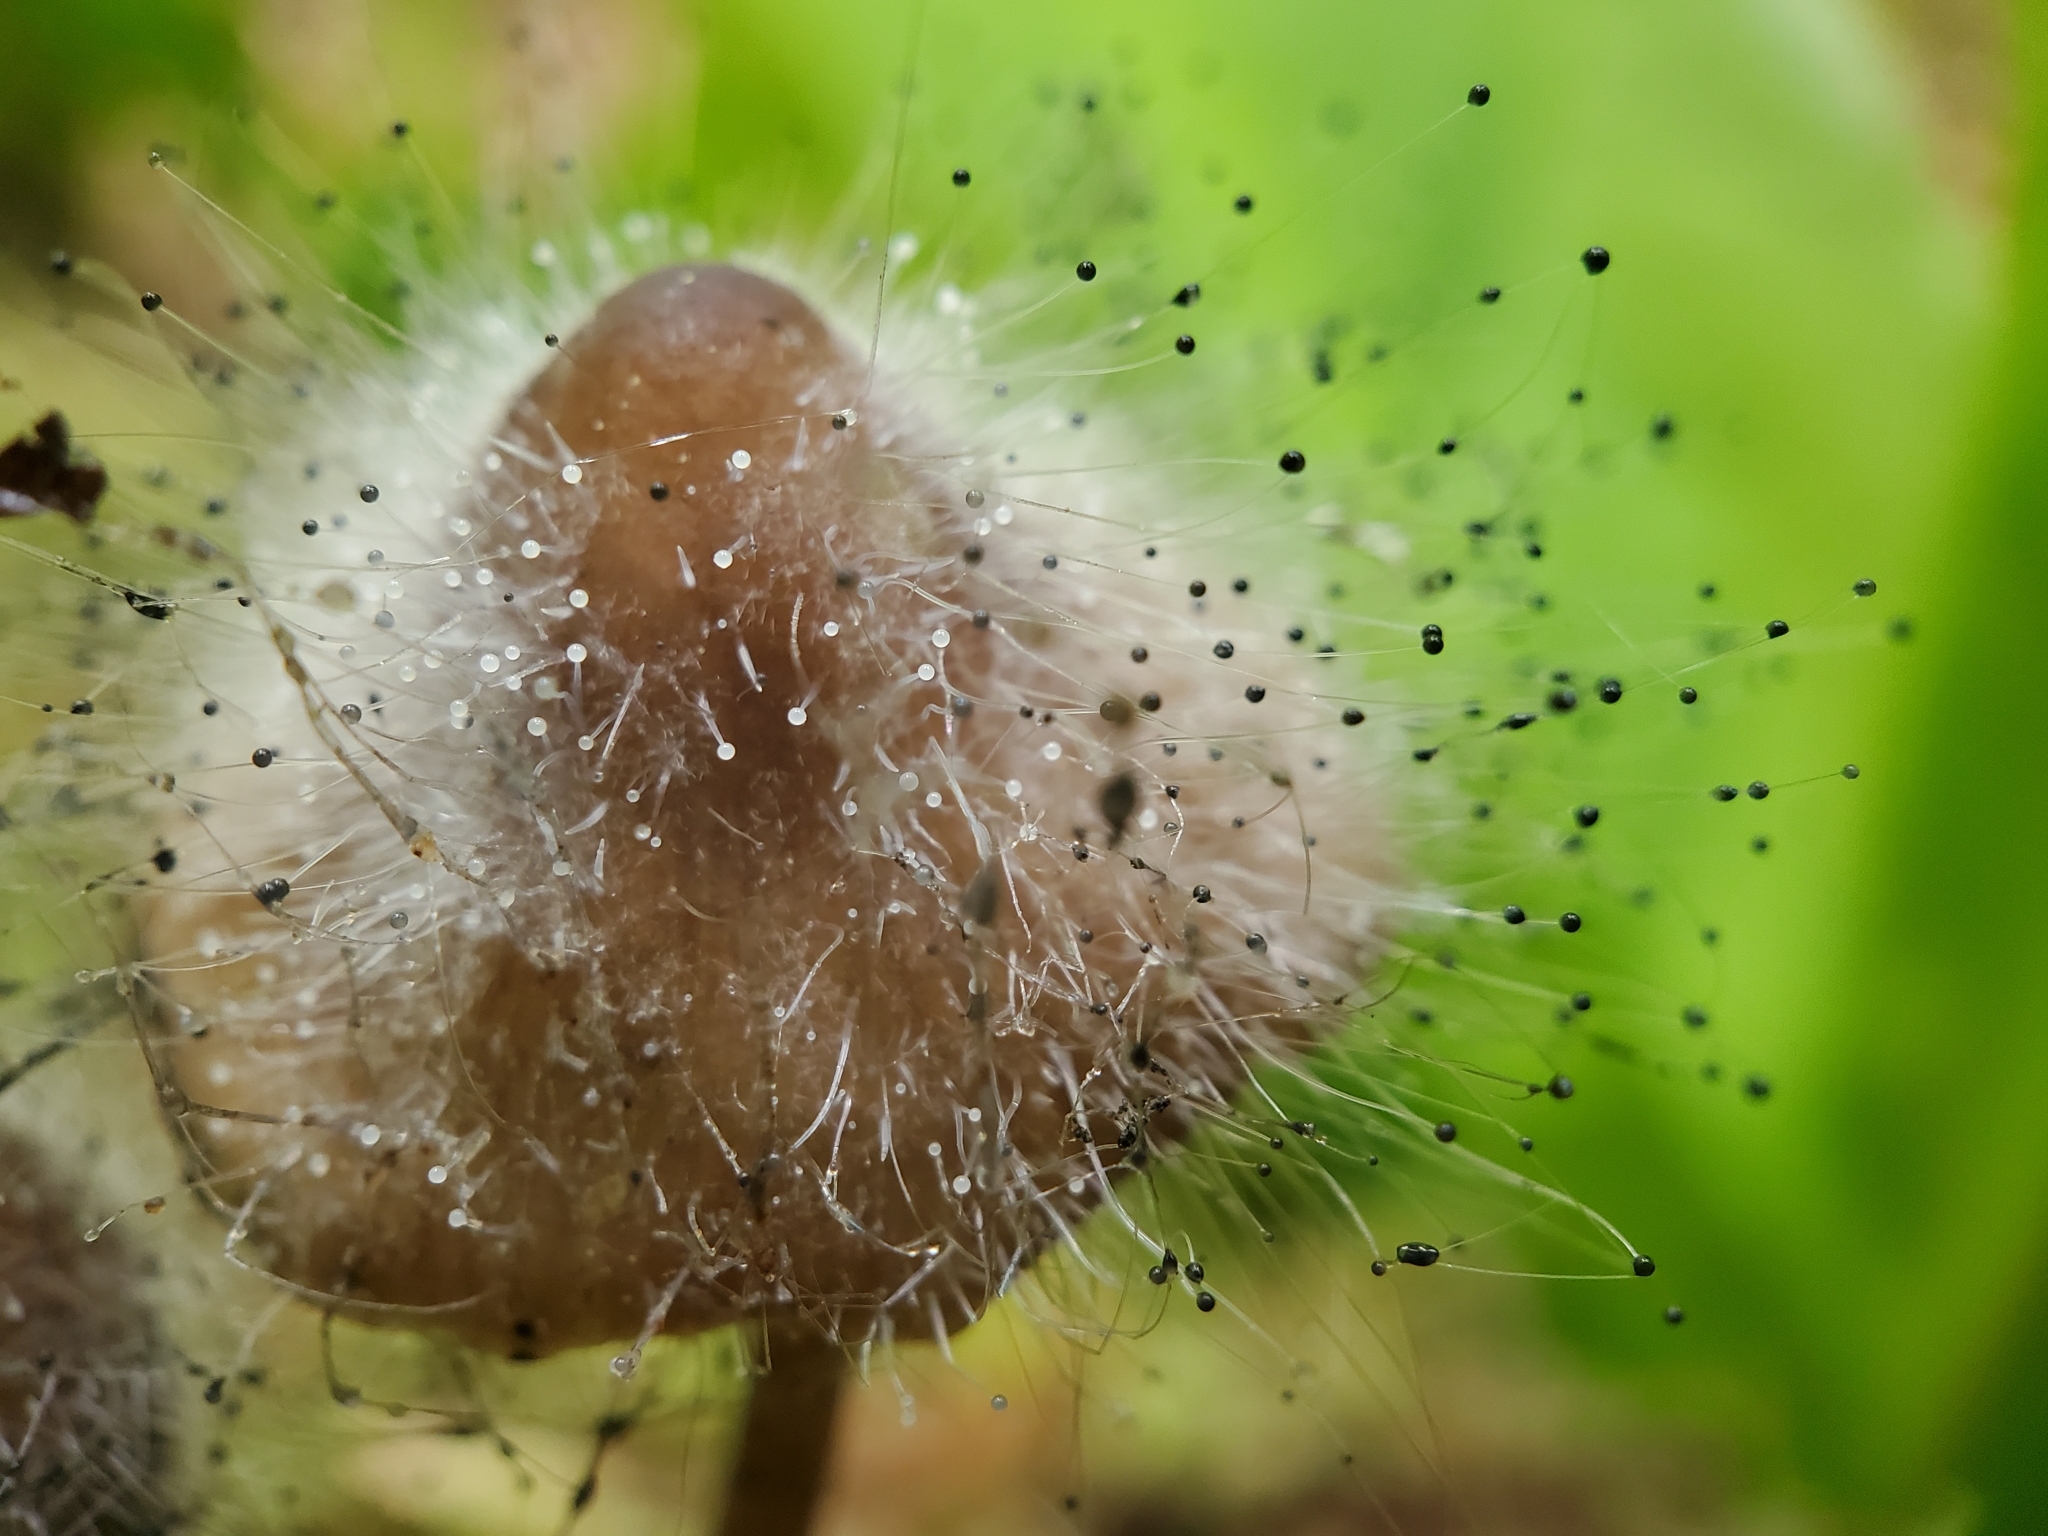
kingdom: Fungi
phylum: Mucoromycota
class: Mucoromycetes
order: Mucorales
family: Phycomycetaceae
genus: Spinellus
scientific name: Spinellus fusiger
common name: Bonnet mould
